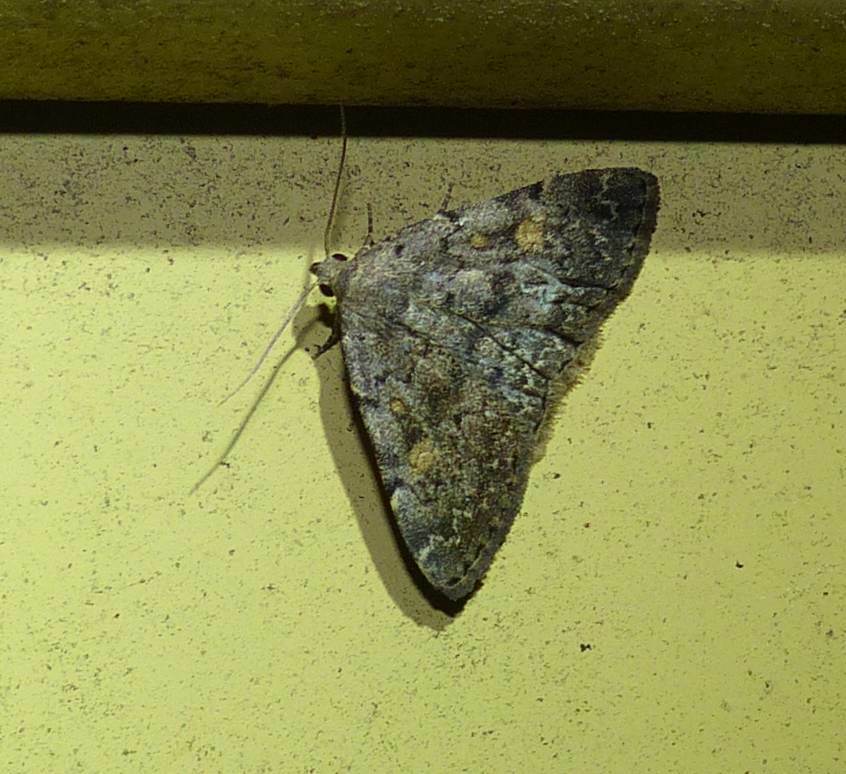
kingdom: Animalia
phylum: Arthropoda
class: Insecta
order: Lepidoptera
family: Erebidae
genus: Idia
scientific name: Idia aemula
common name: Common idia moth
